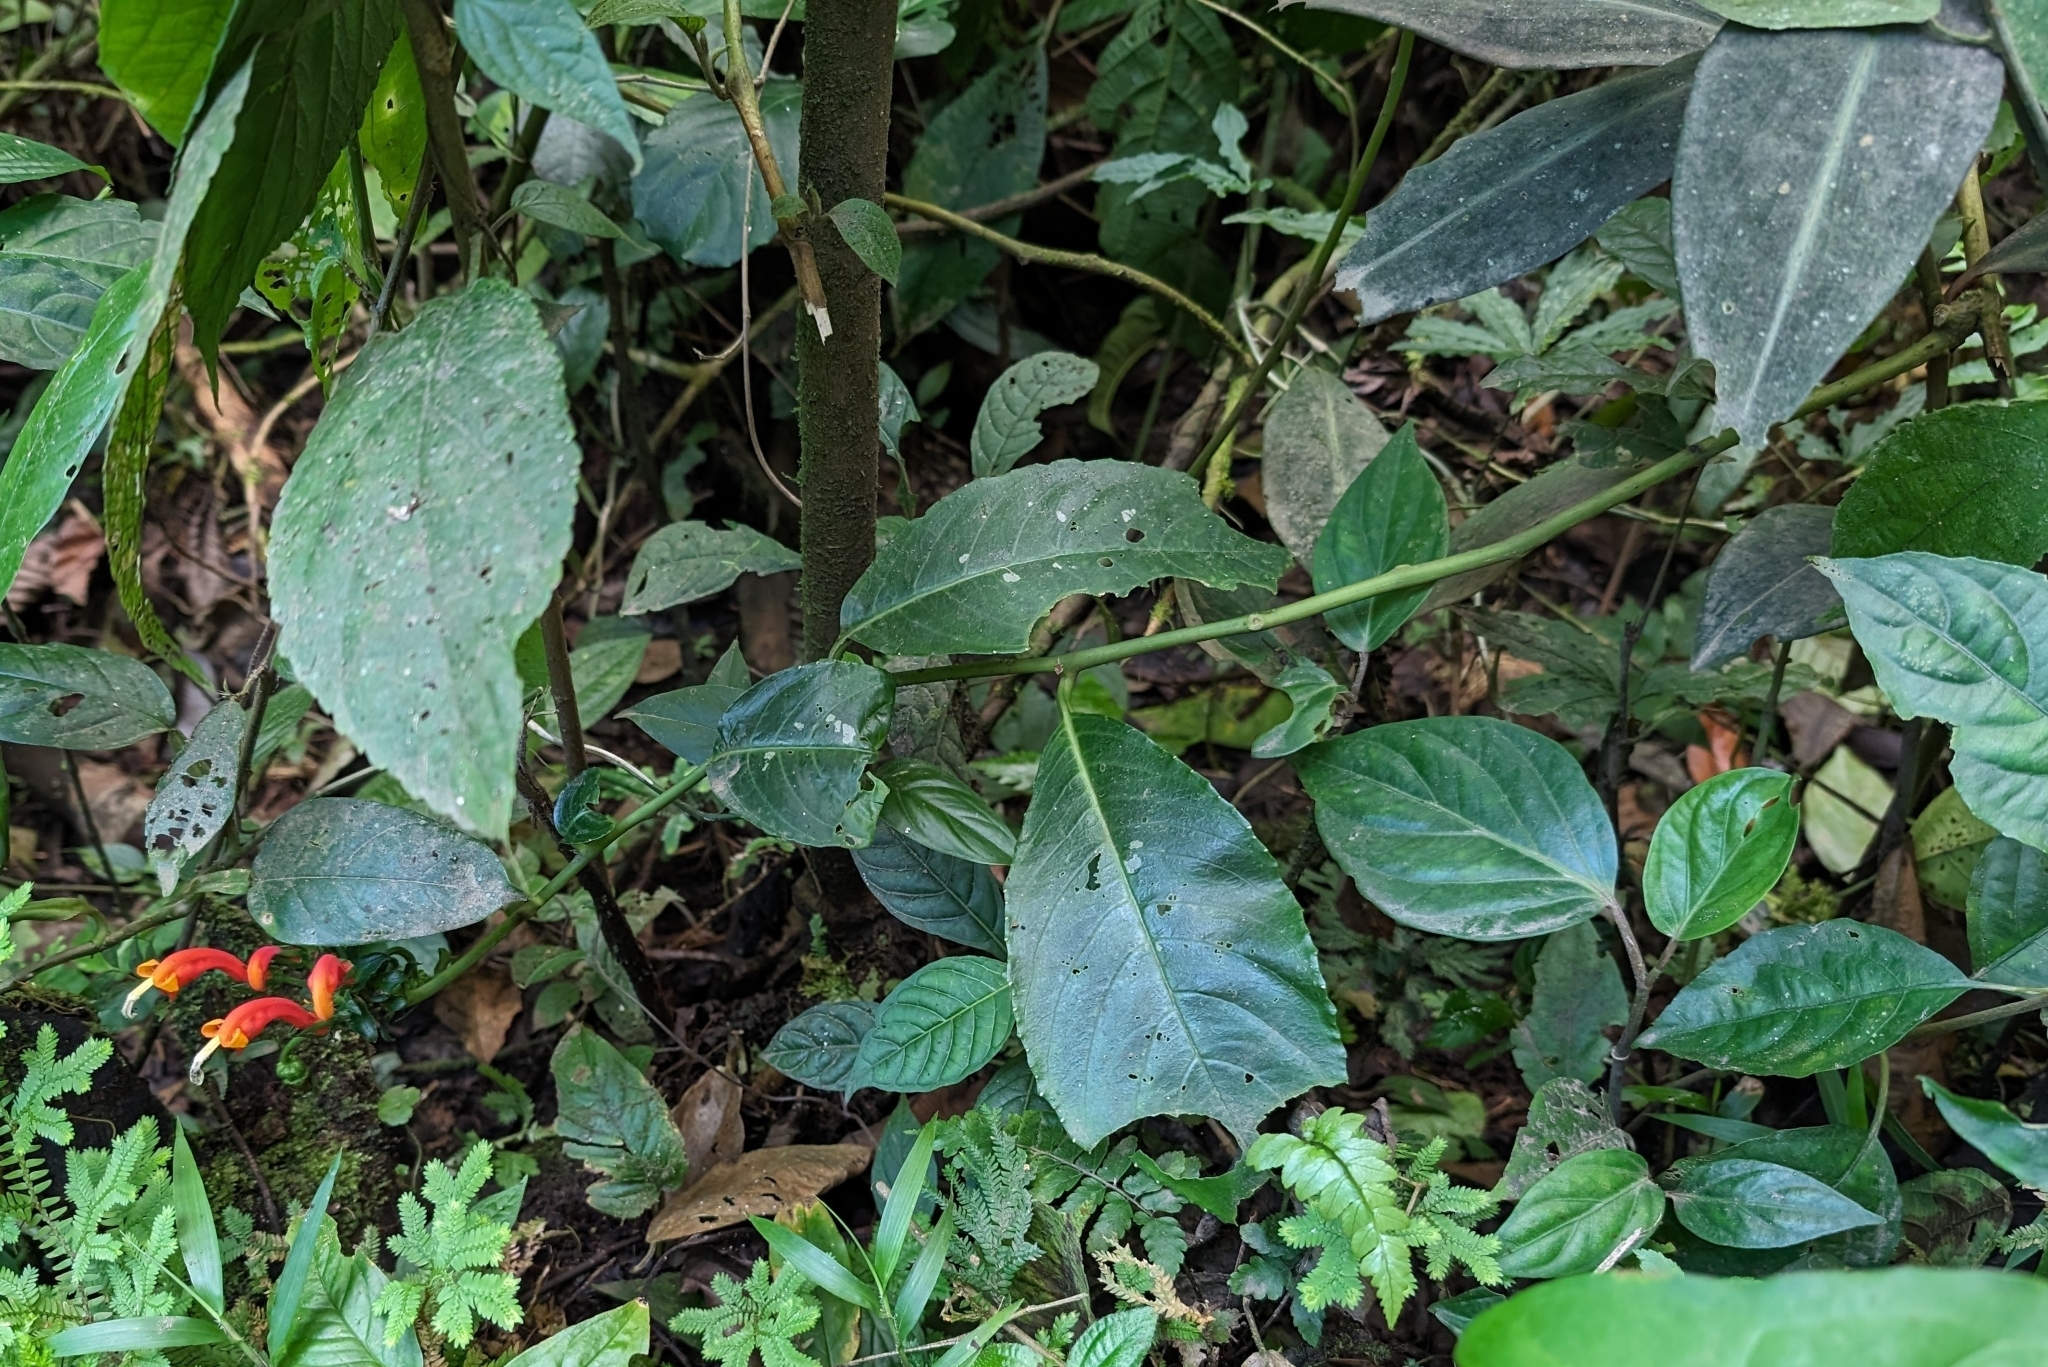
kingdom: Plantae
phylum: Tracheophyta
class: Magnoliopsida
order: Asterales
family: Campanulaceae
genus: Centropogon
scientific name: Centropogon granulosus
